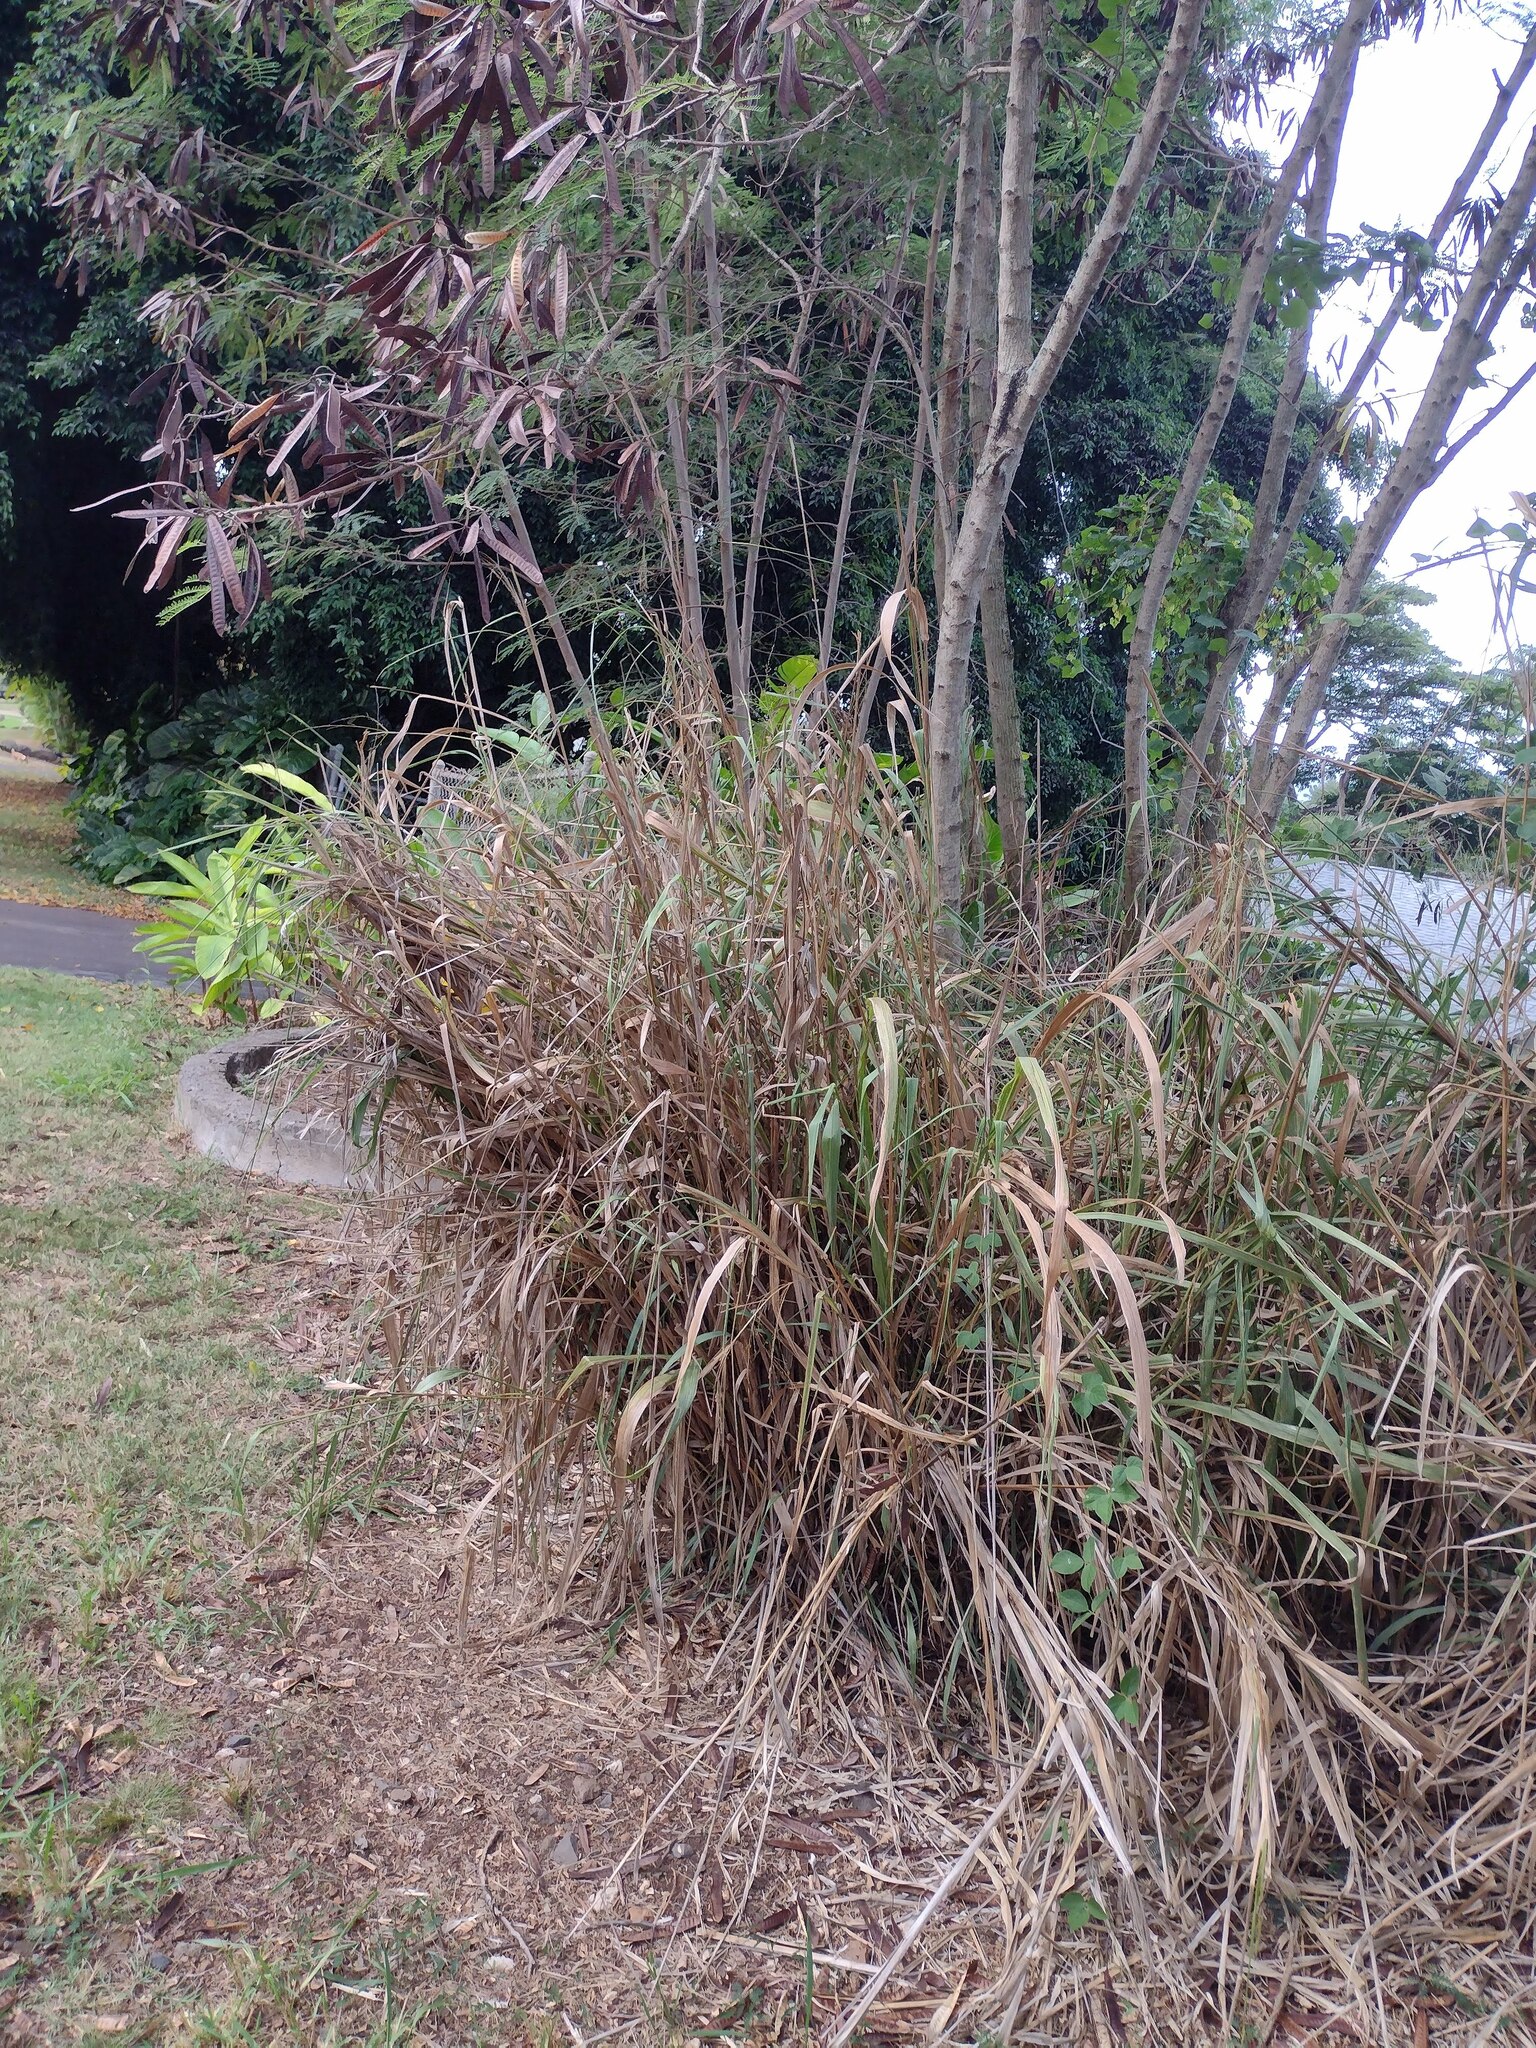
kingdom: Plantae
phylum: Tracheophyta
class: Liliopsida
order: Poales
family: Poaceae
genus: Megathyrsus
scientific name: Megathyrsus maximus
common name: Guineagrass
